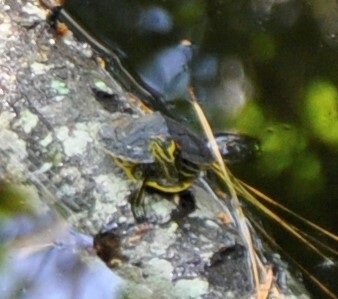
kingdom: Animalia
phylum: Chordata
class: Testudines
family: Emydidae
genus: Trachemys
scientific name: Trachemys scripta
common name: Slider
